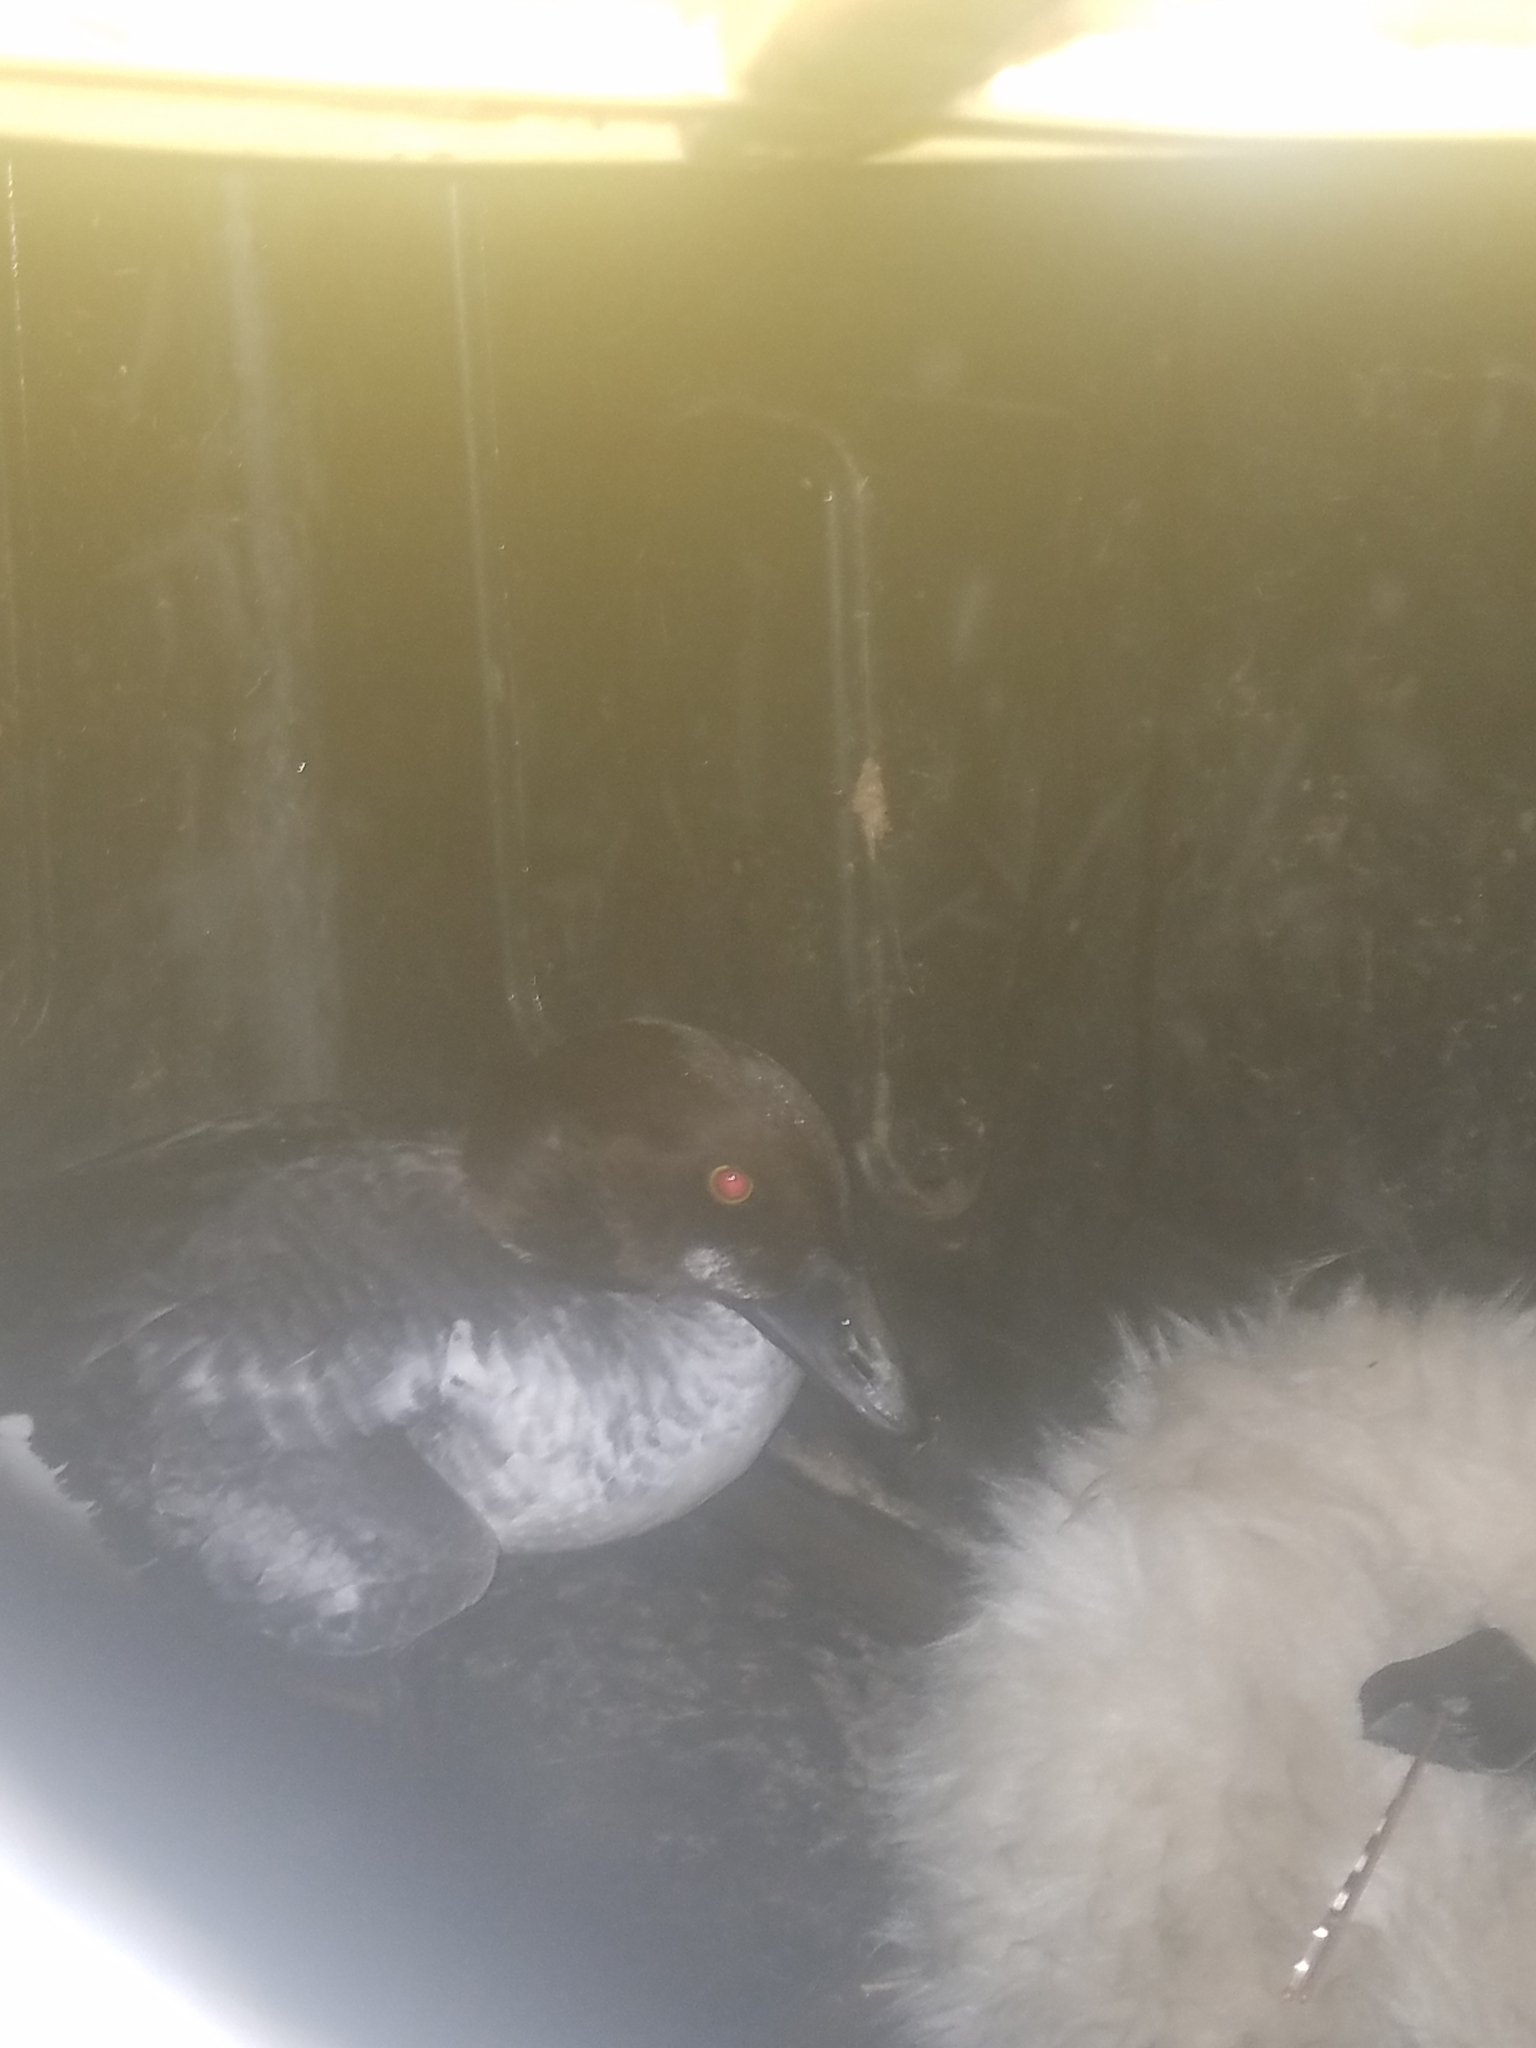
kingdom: Animalia
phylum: Chordata
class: Aves
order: Anseriformes
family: Anatidae
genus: Bucephala
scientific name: Bucephala clangula
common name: Common goldeneye
